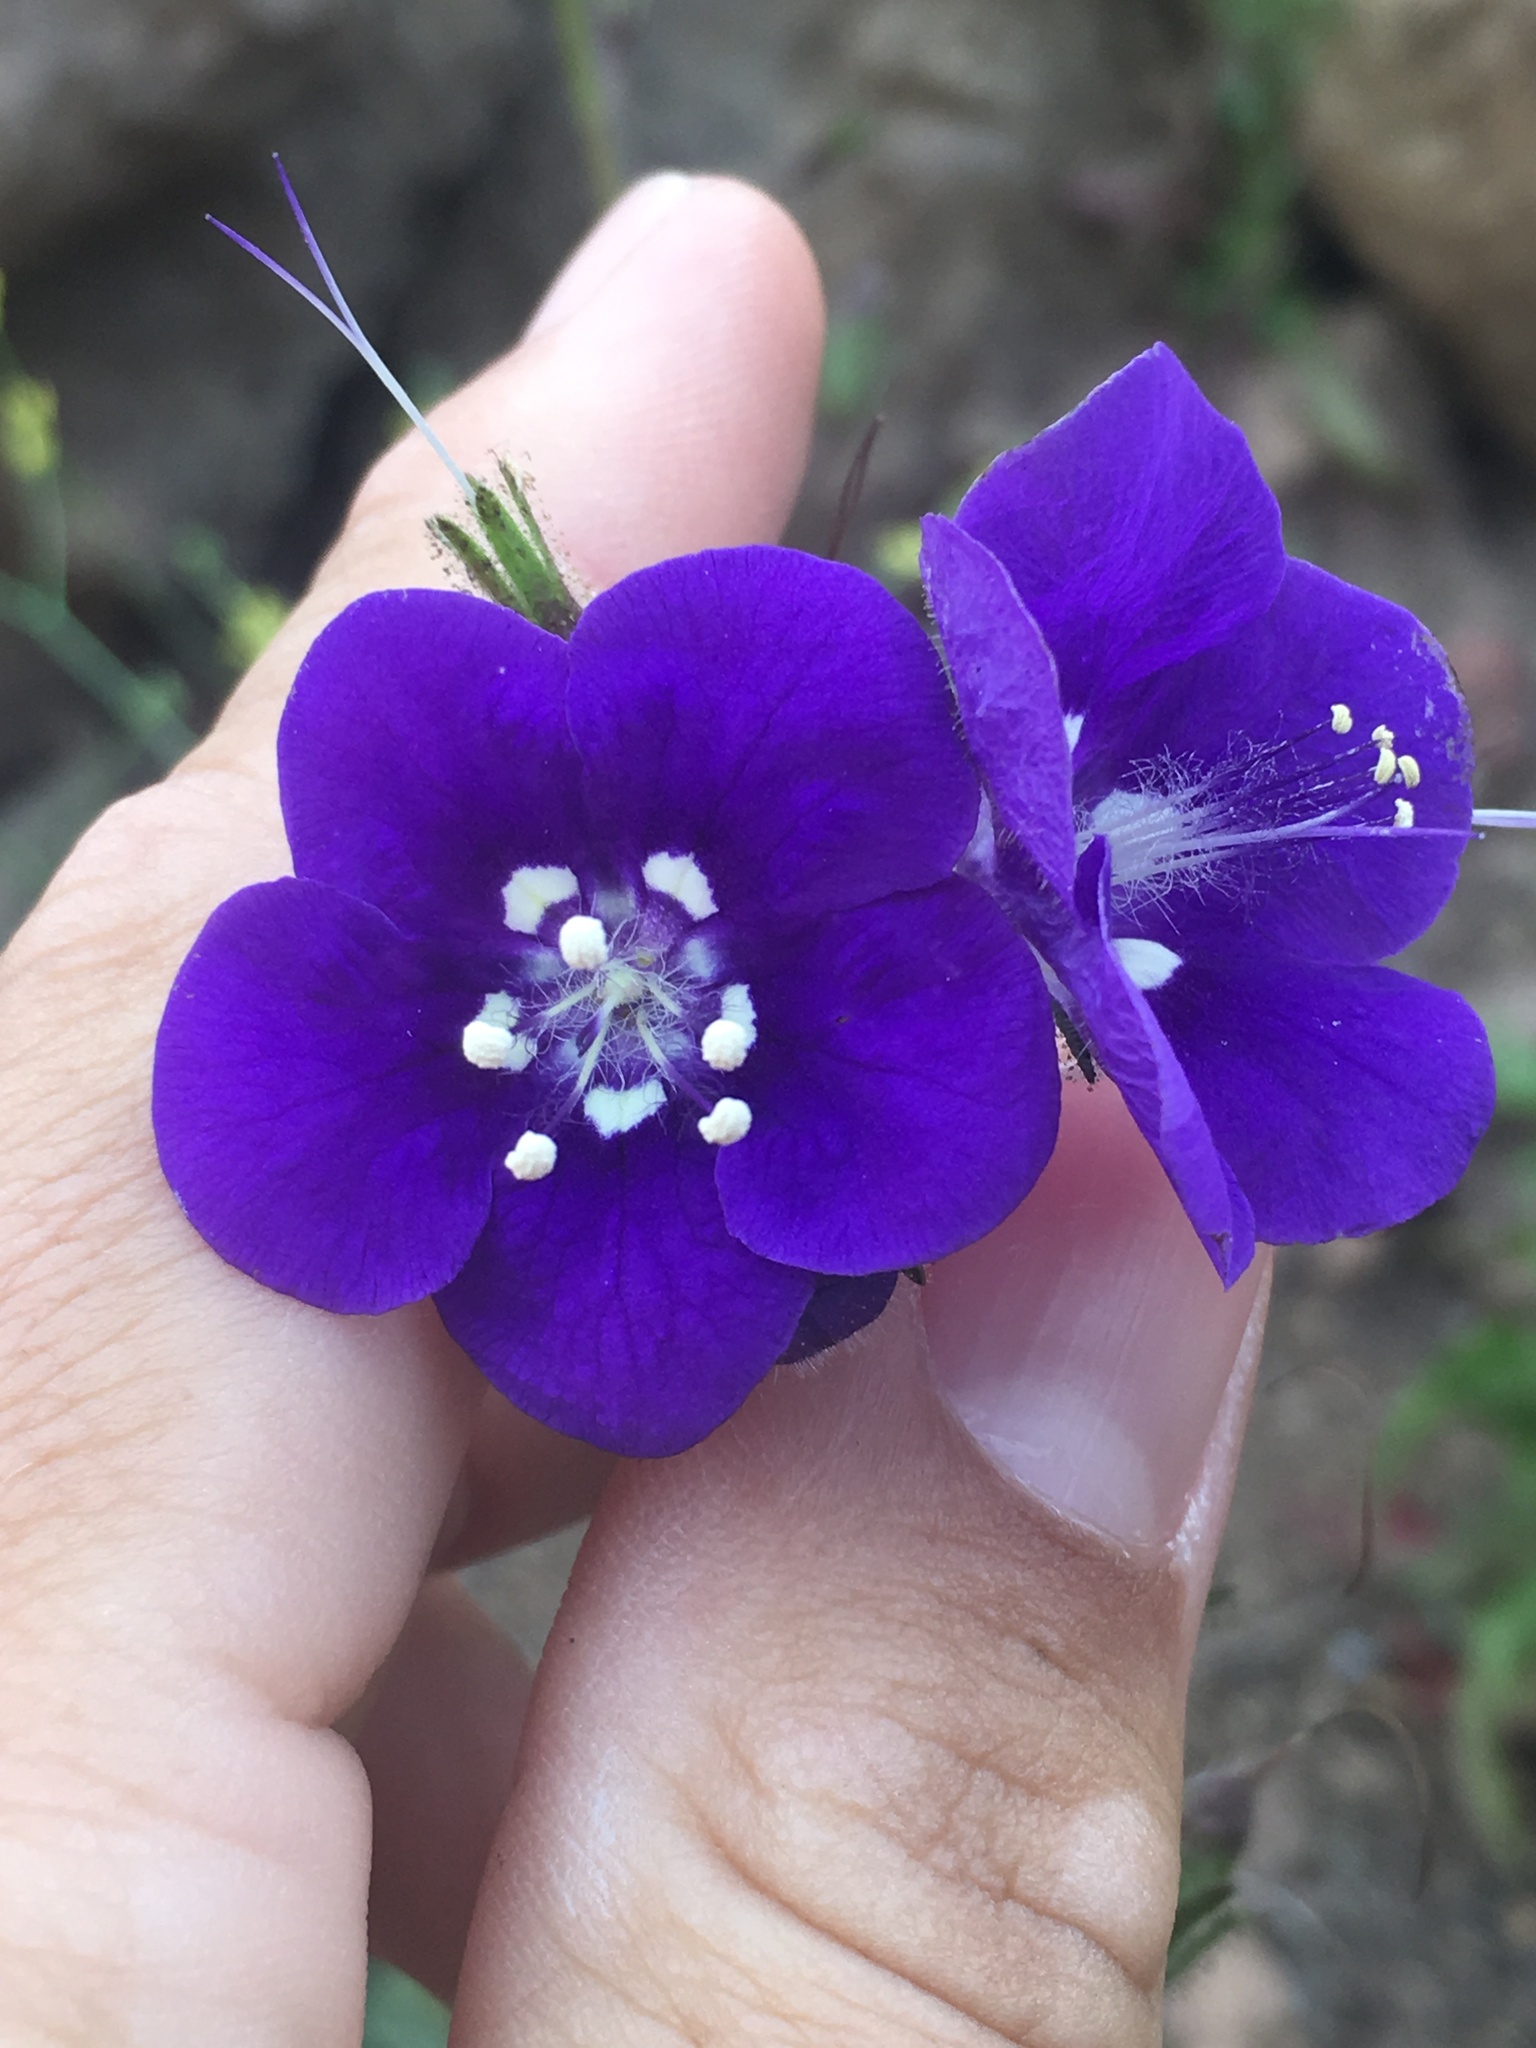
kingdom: Plantae
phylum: Tracheophyta
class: Magnoliopsida
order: Boraginales
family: Hydrophyllaceae
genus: Phacelia
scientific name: Phacelia parryi
